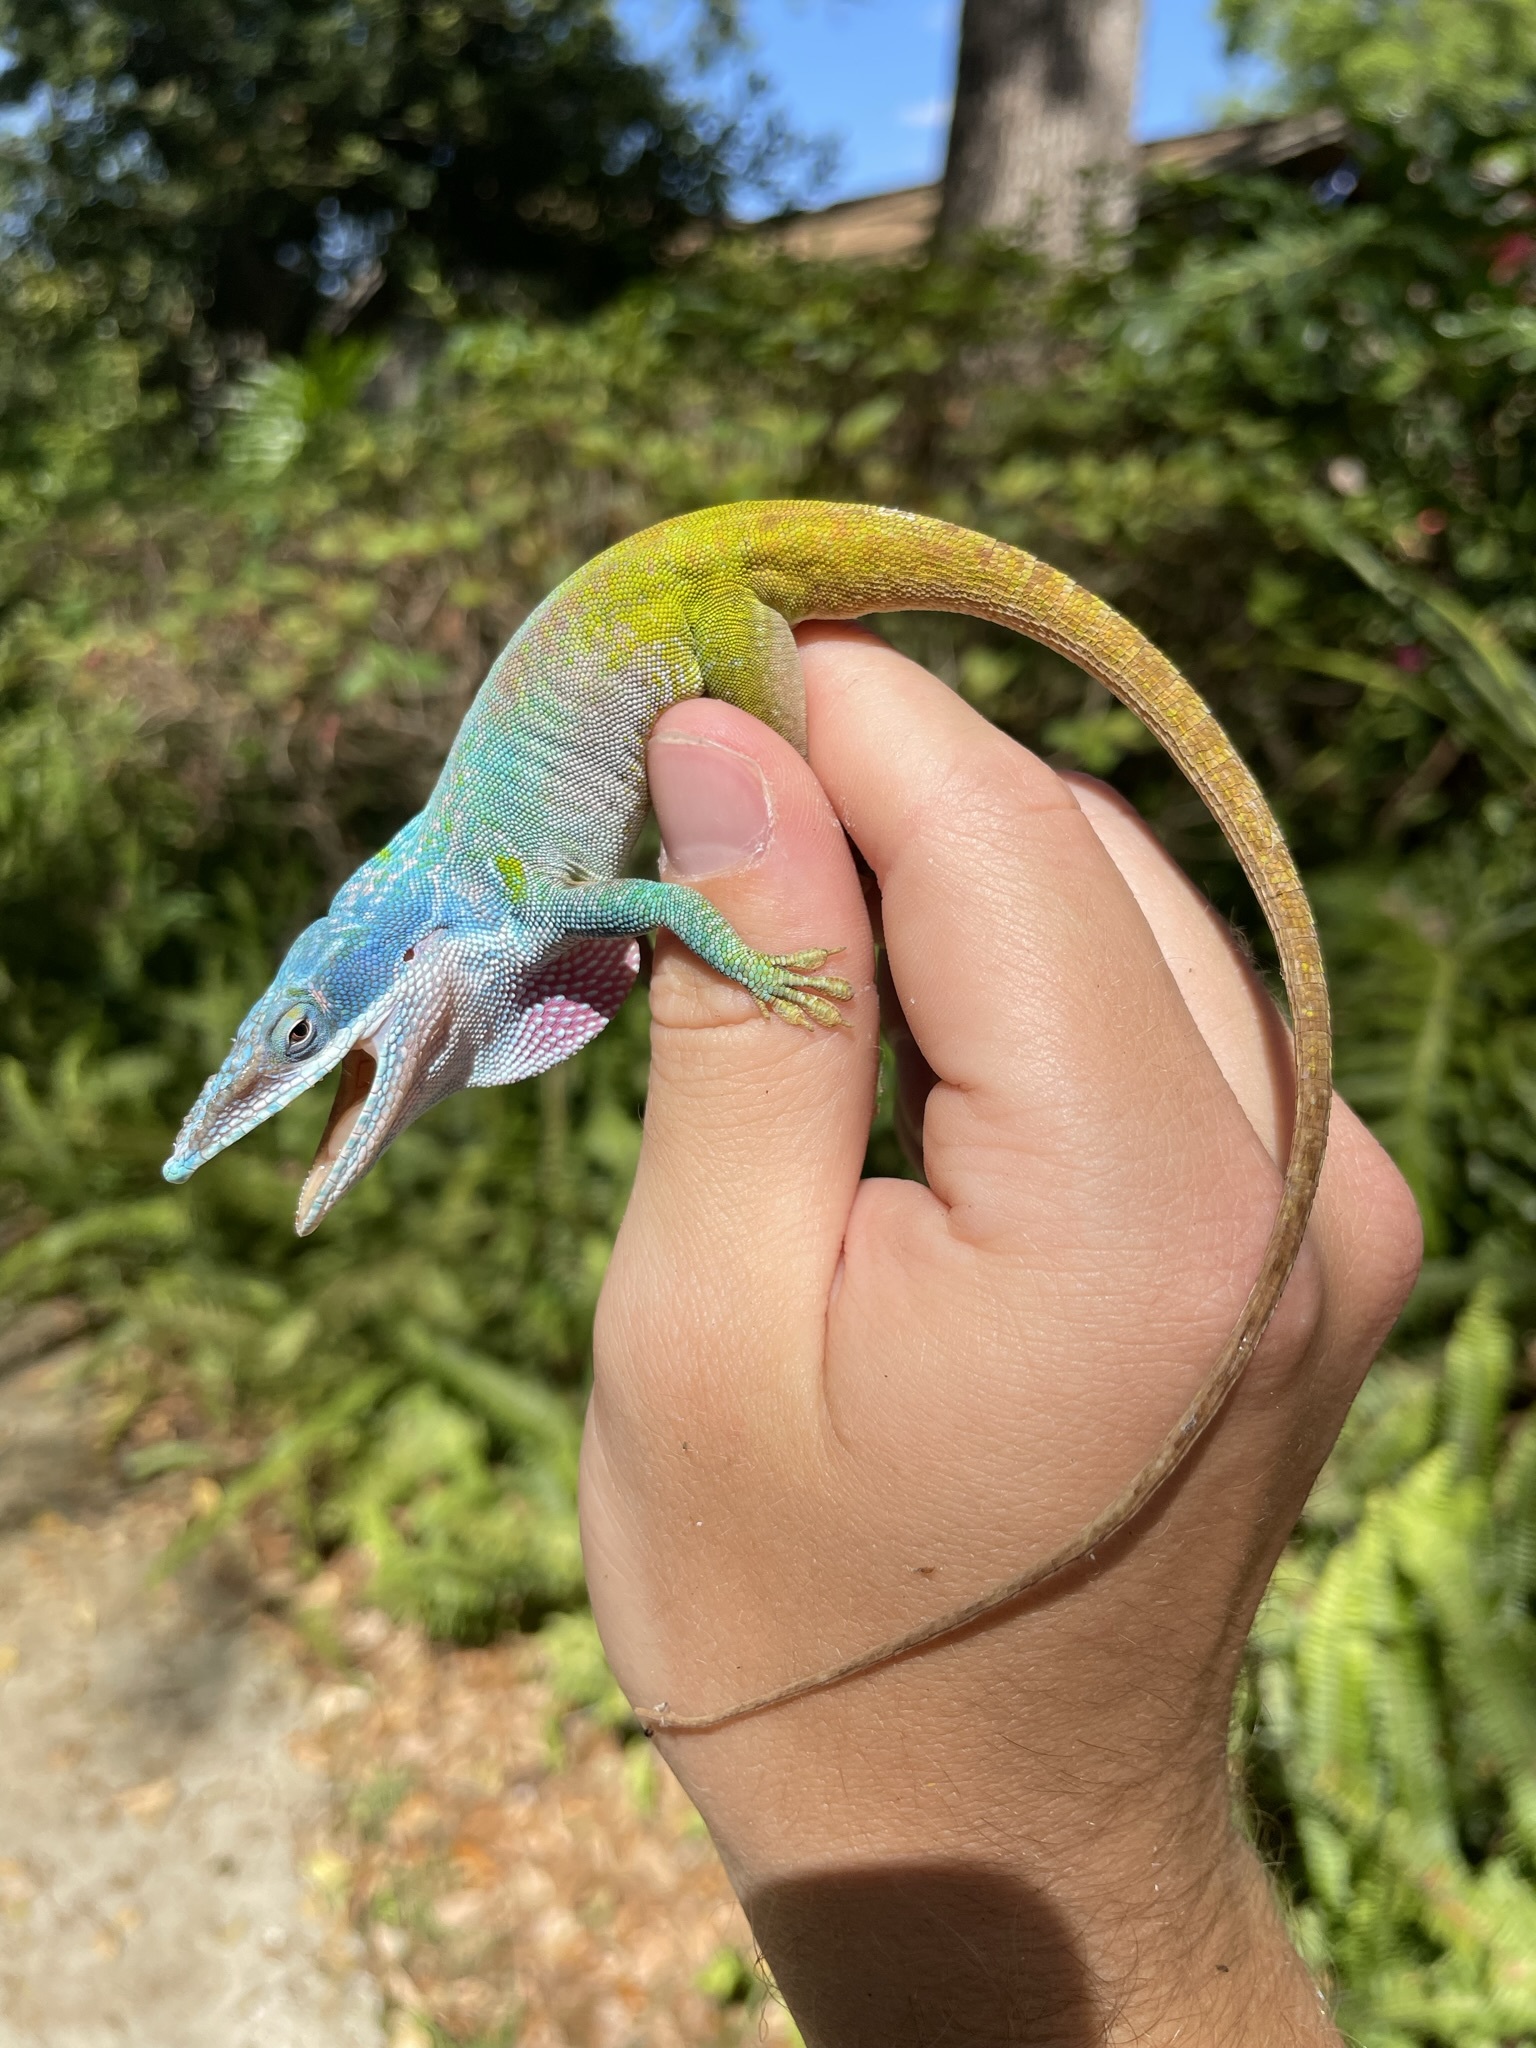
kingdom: Animalia
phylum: Chordata
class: Squamata
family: Dactyloidae
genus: Anolis
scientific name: Anolis allisoni
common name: Allison's anole
